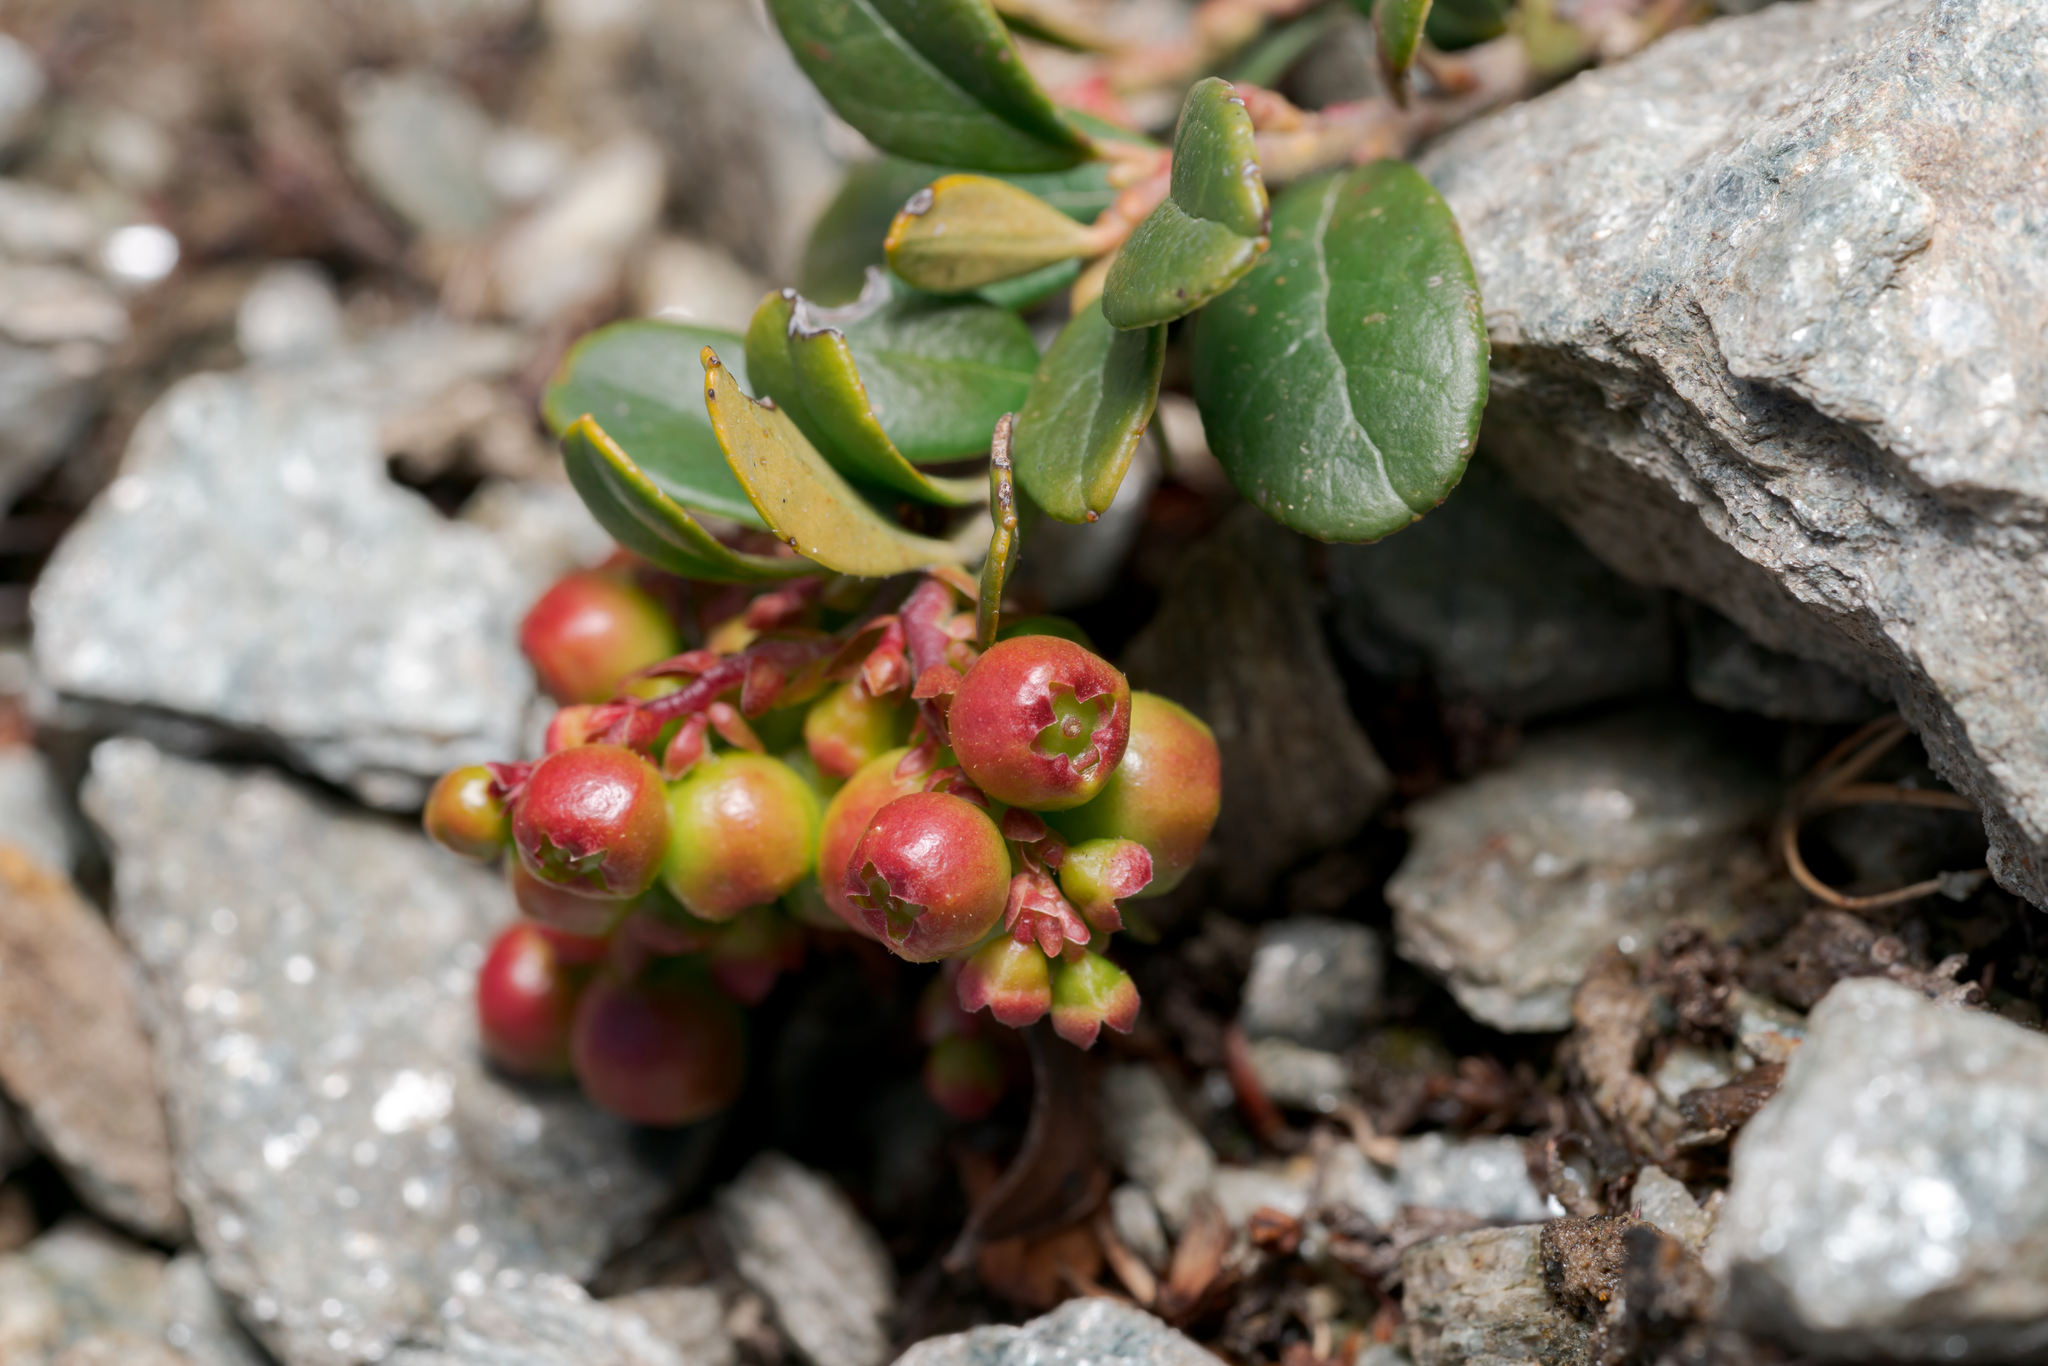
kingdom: Plantae
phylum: Tracheophyta
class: Magnoliopsida
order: Ericales
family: Ericaceae
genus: Vaccinium
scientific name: Vaccinium vitis-idaea
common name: Cowberry
